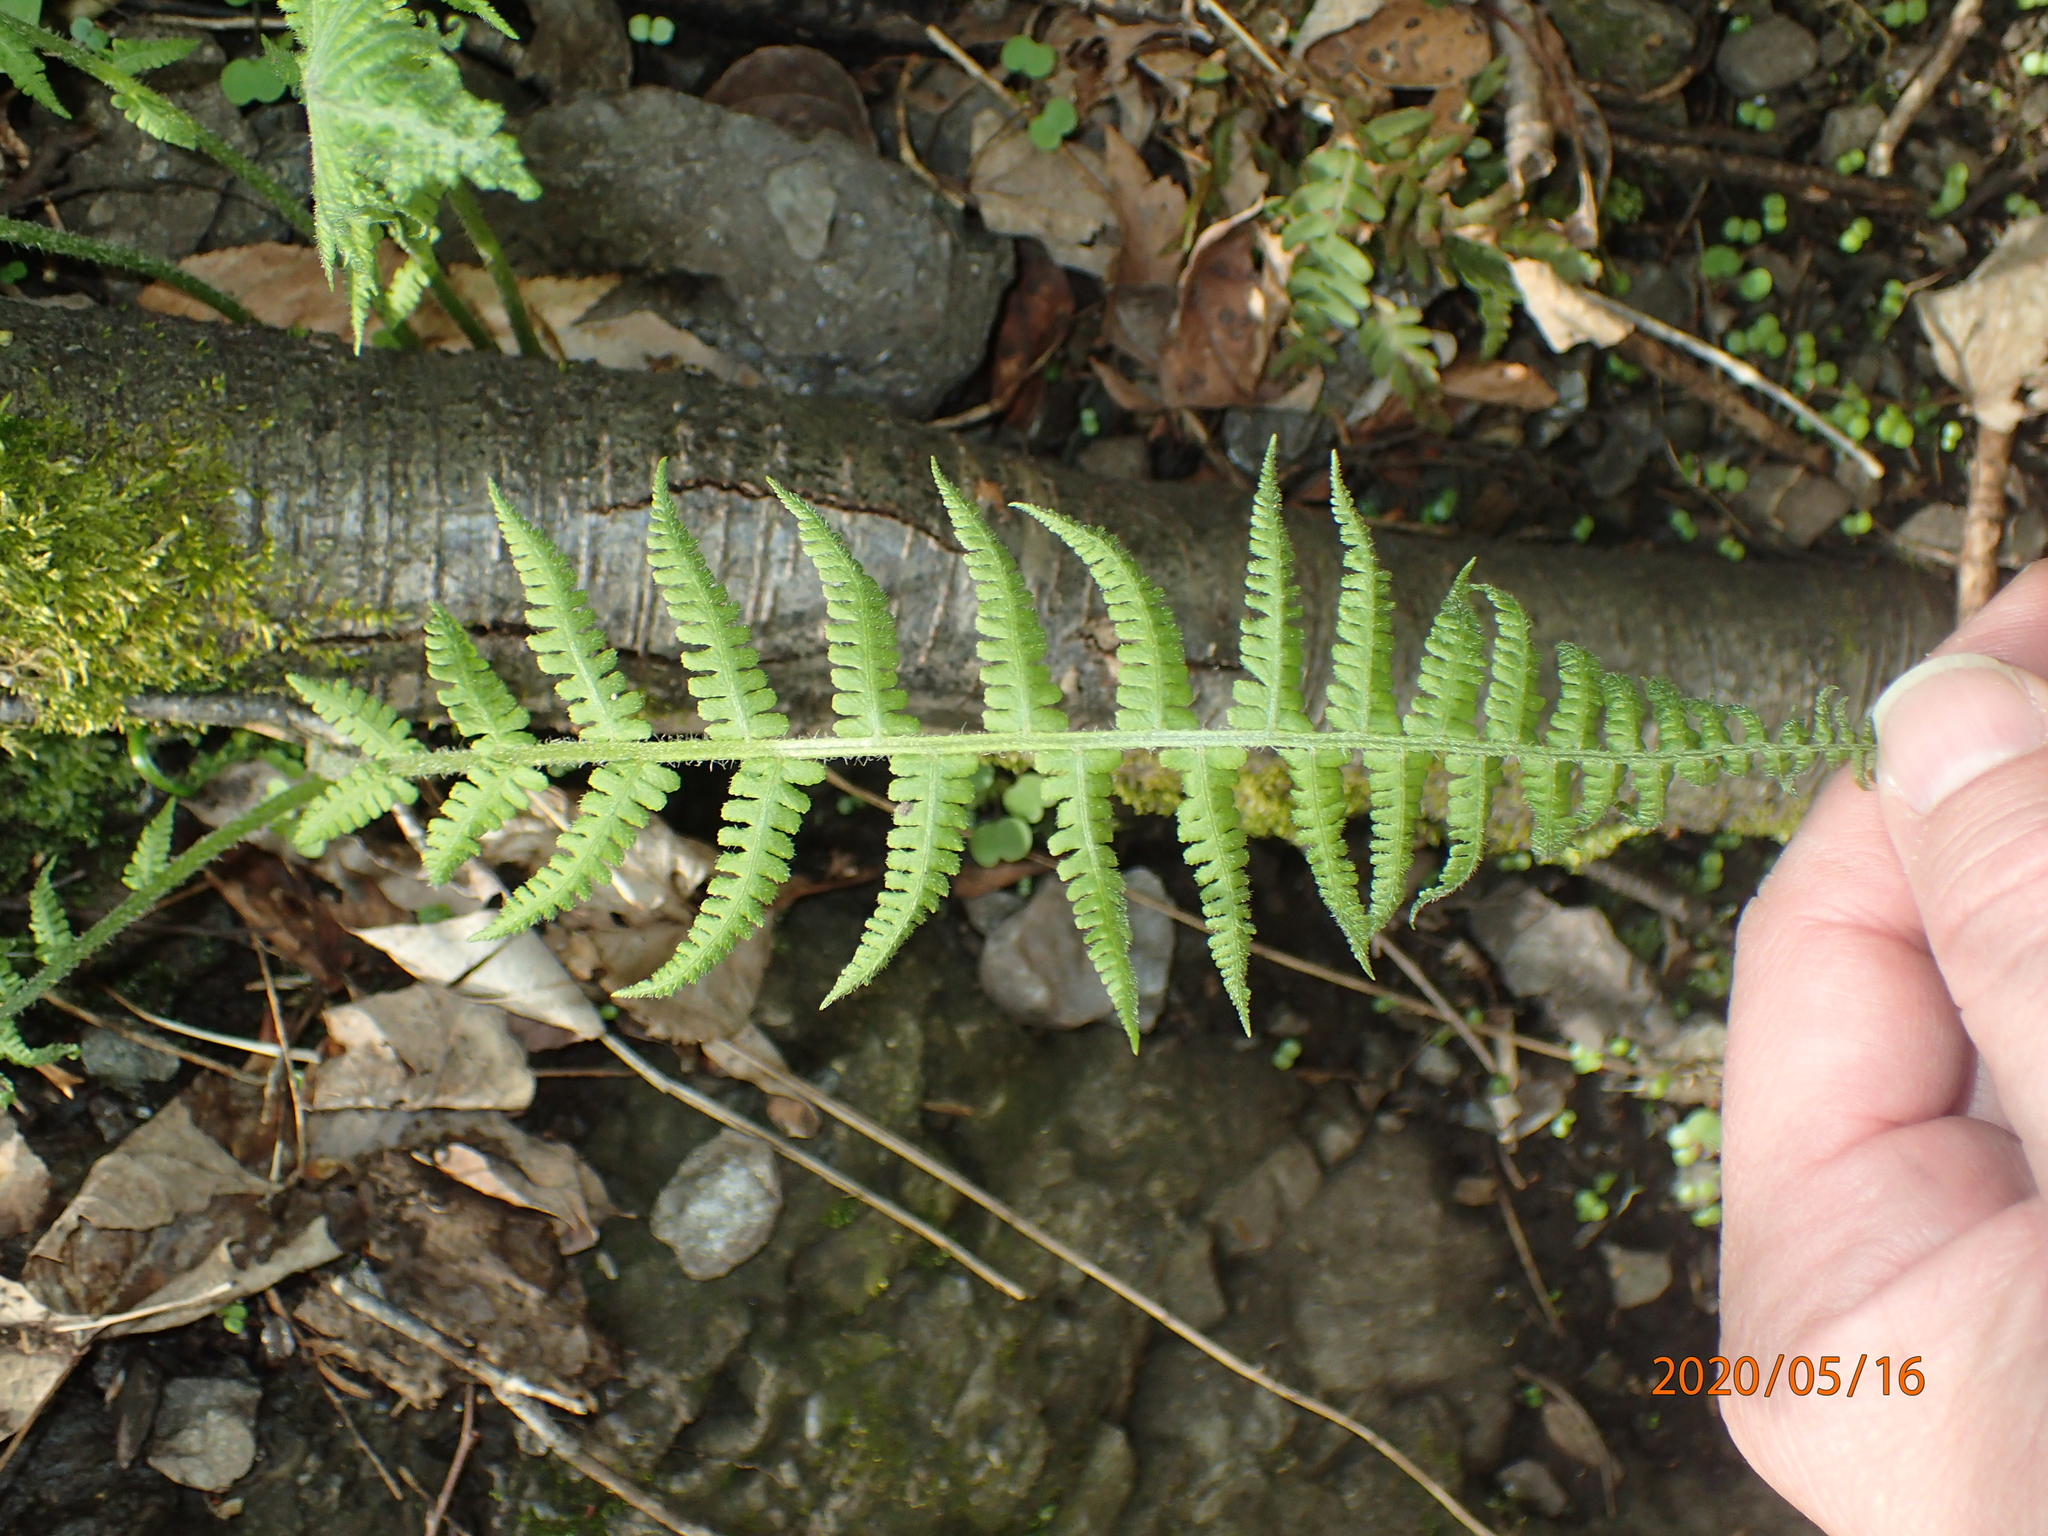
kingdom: Plantae
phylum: Tracheophyta
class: Polypodiopsida
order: Polypodiales
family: Athyriaceae
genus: Deparia
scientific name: Deparia acrostichoides
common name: Silver false spleenwort
